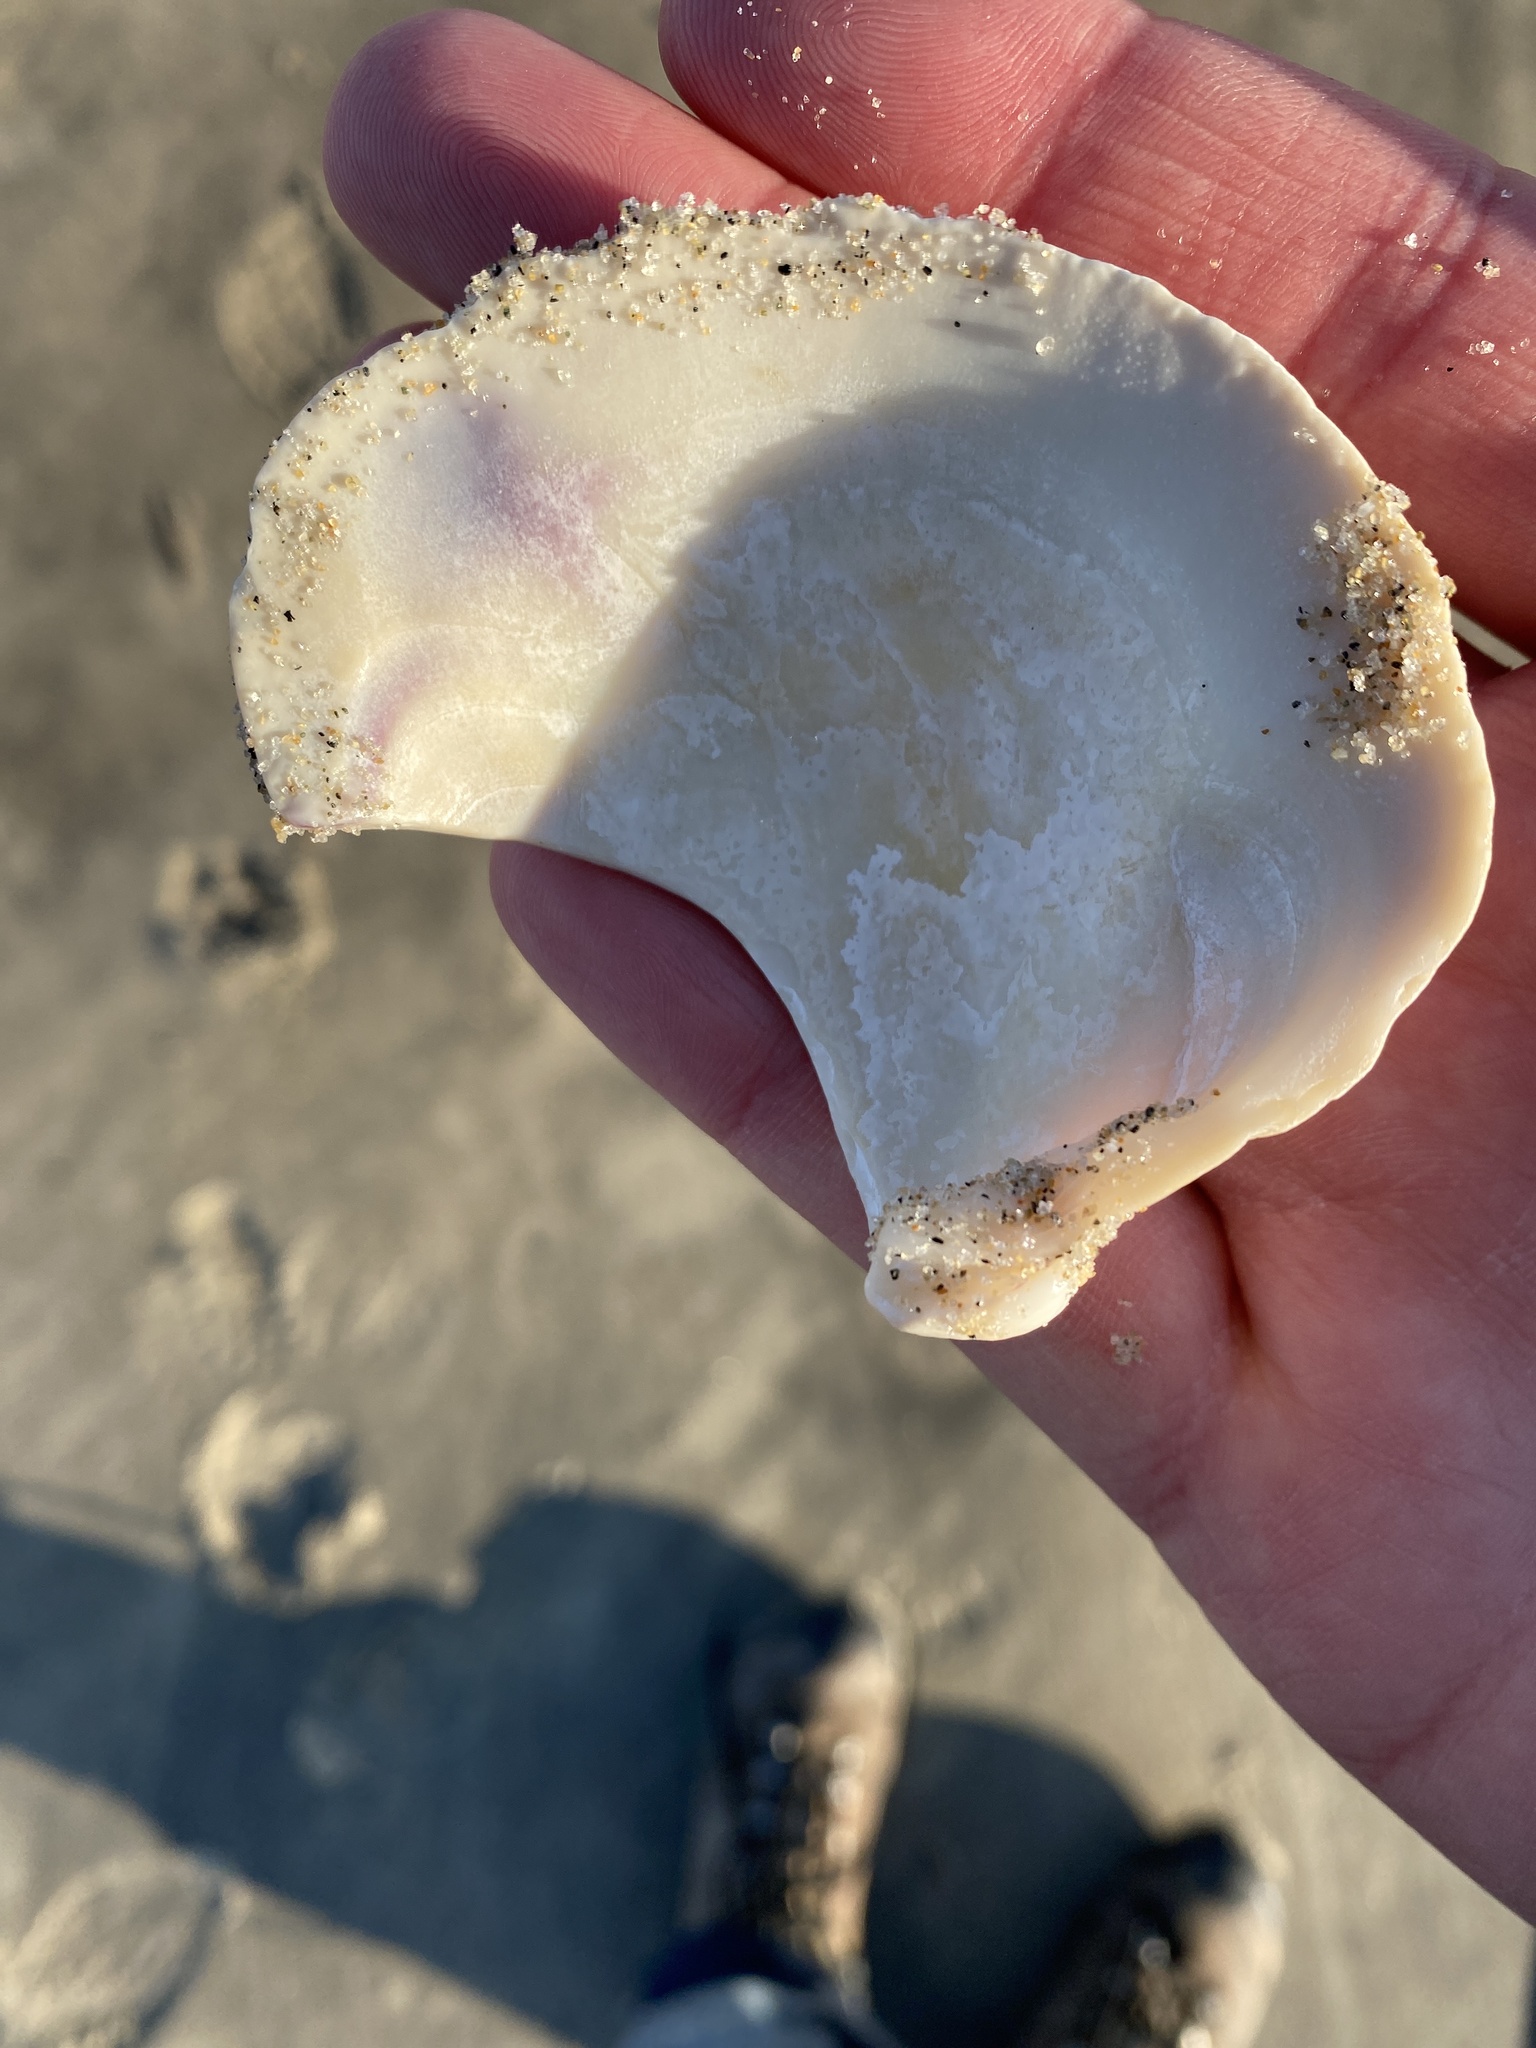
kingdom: Animalia
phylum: Mollusca
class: Bivalvia
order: Venerida
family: Veneridae
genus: Mercenaria
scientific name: Mercenaria mercenaria
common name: American hard-shelled clam
